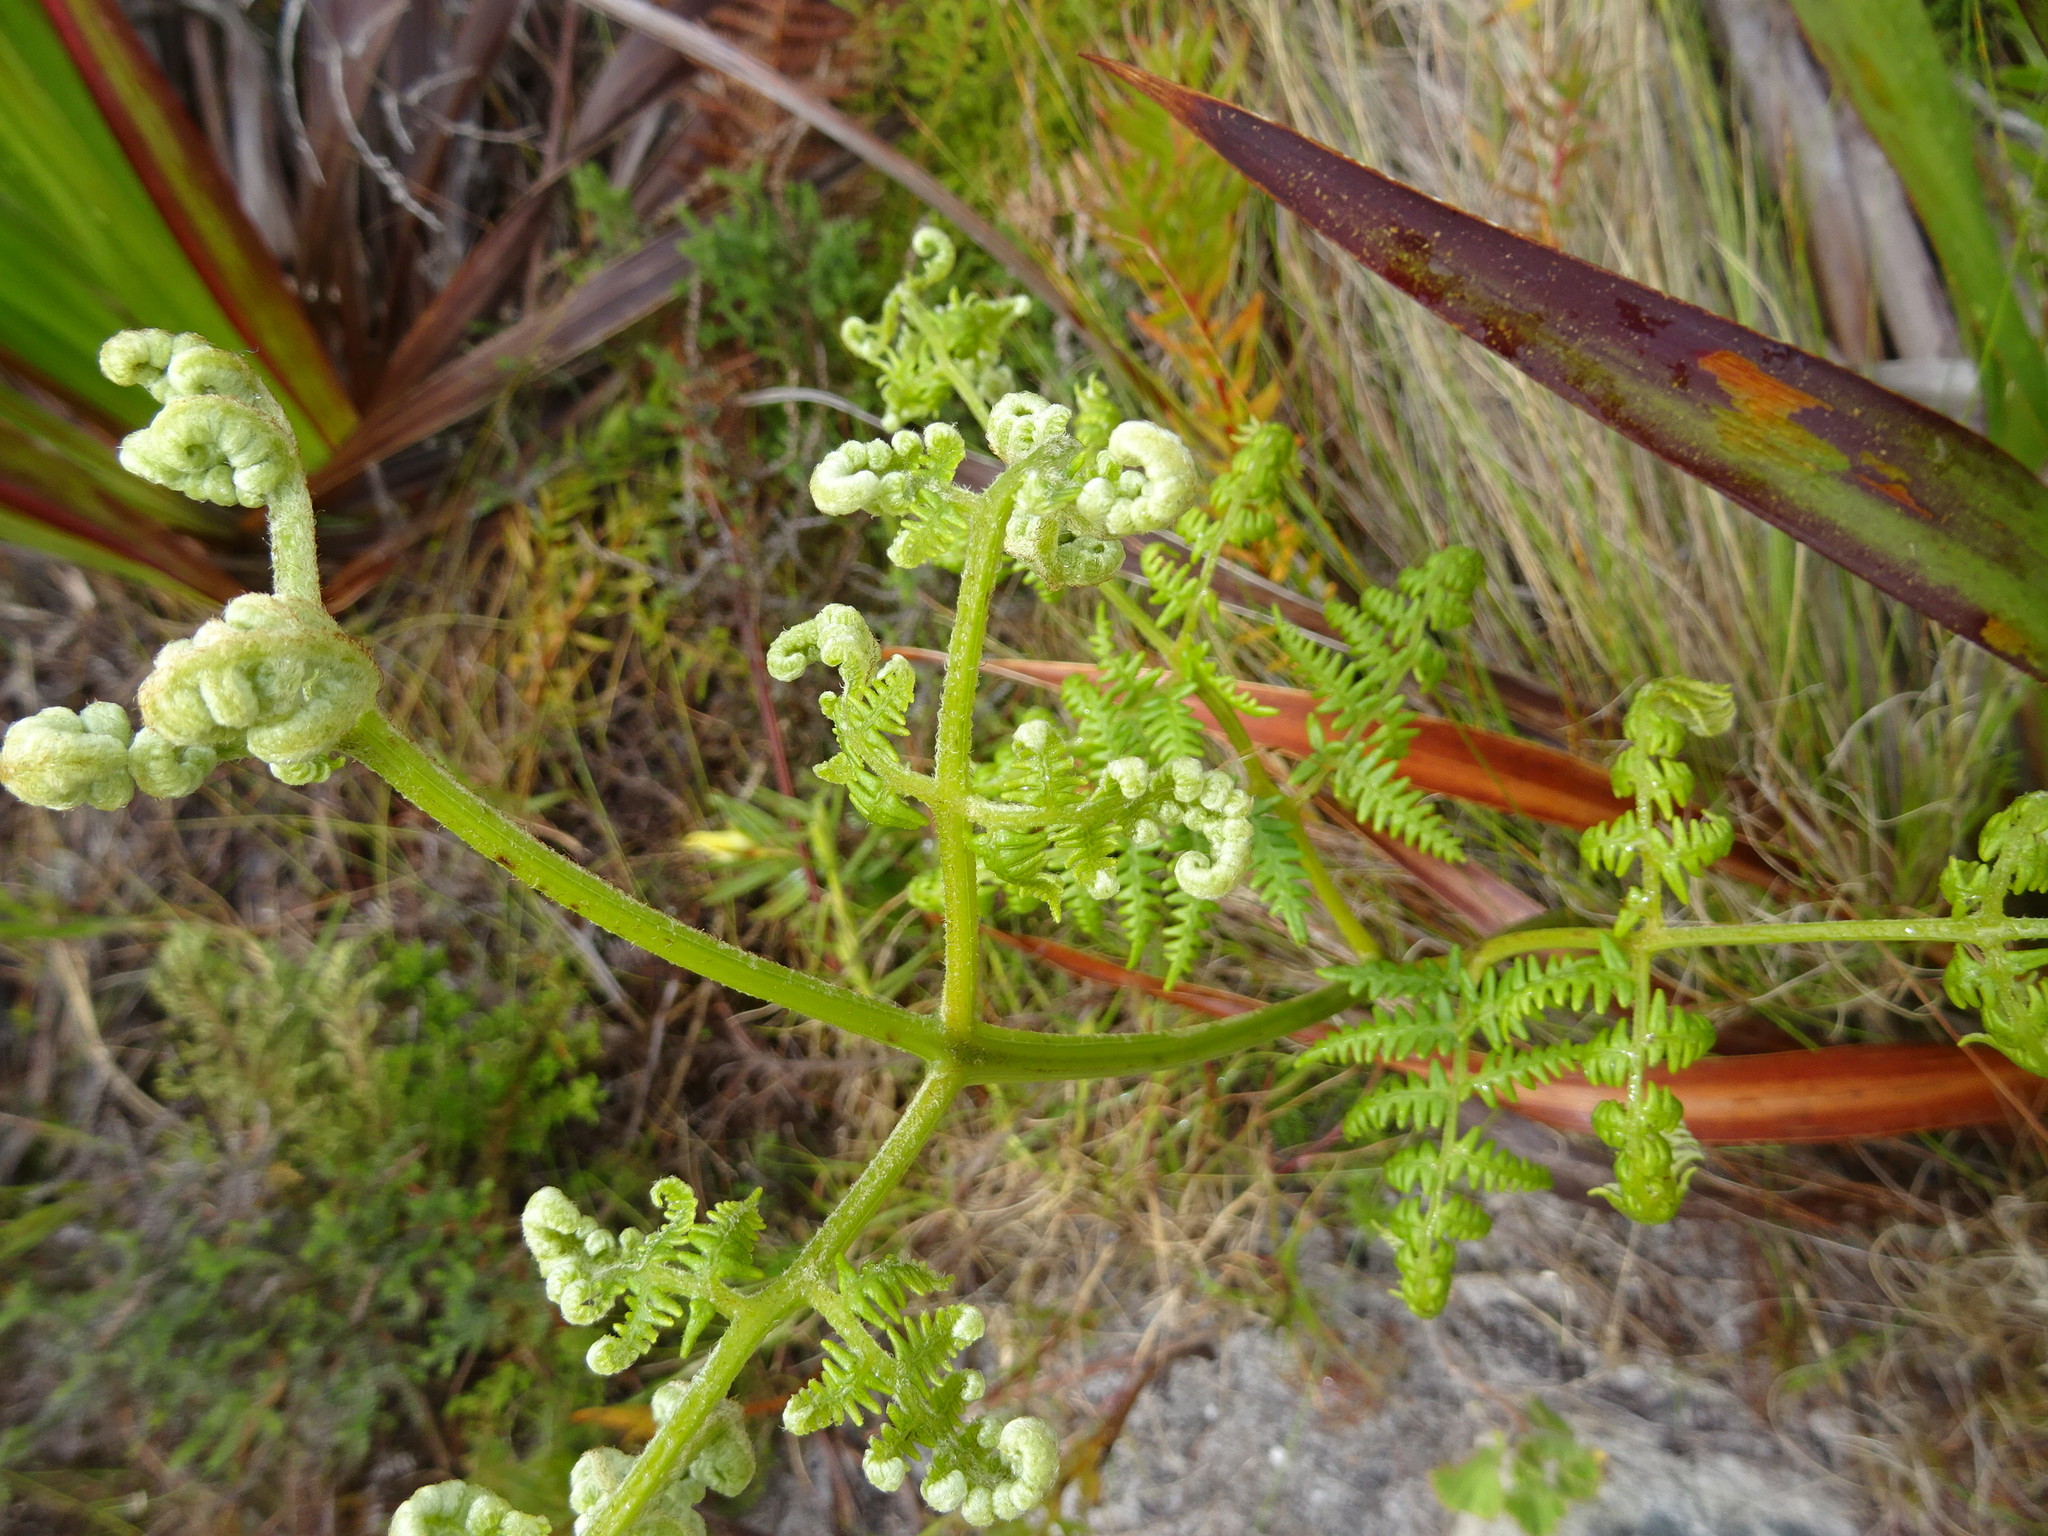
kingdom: Plantae
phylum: Tracheophyta
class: Polypodiopsida
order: Polypodiales
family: Dennstaedtiaceae
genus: Pteridium
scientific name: Pteridium aquilinum
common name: Bracken
